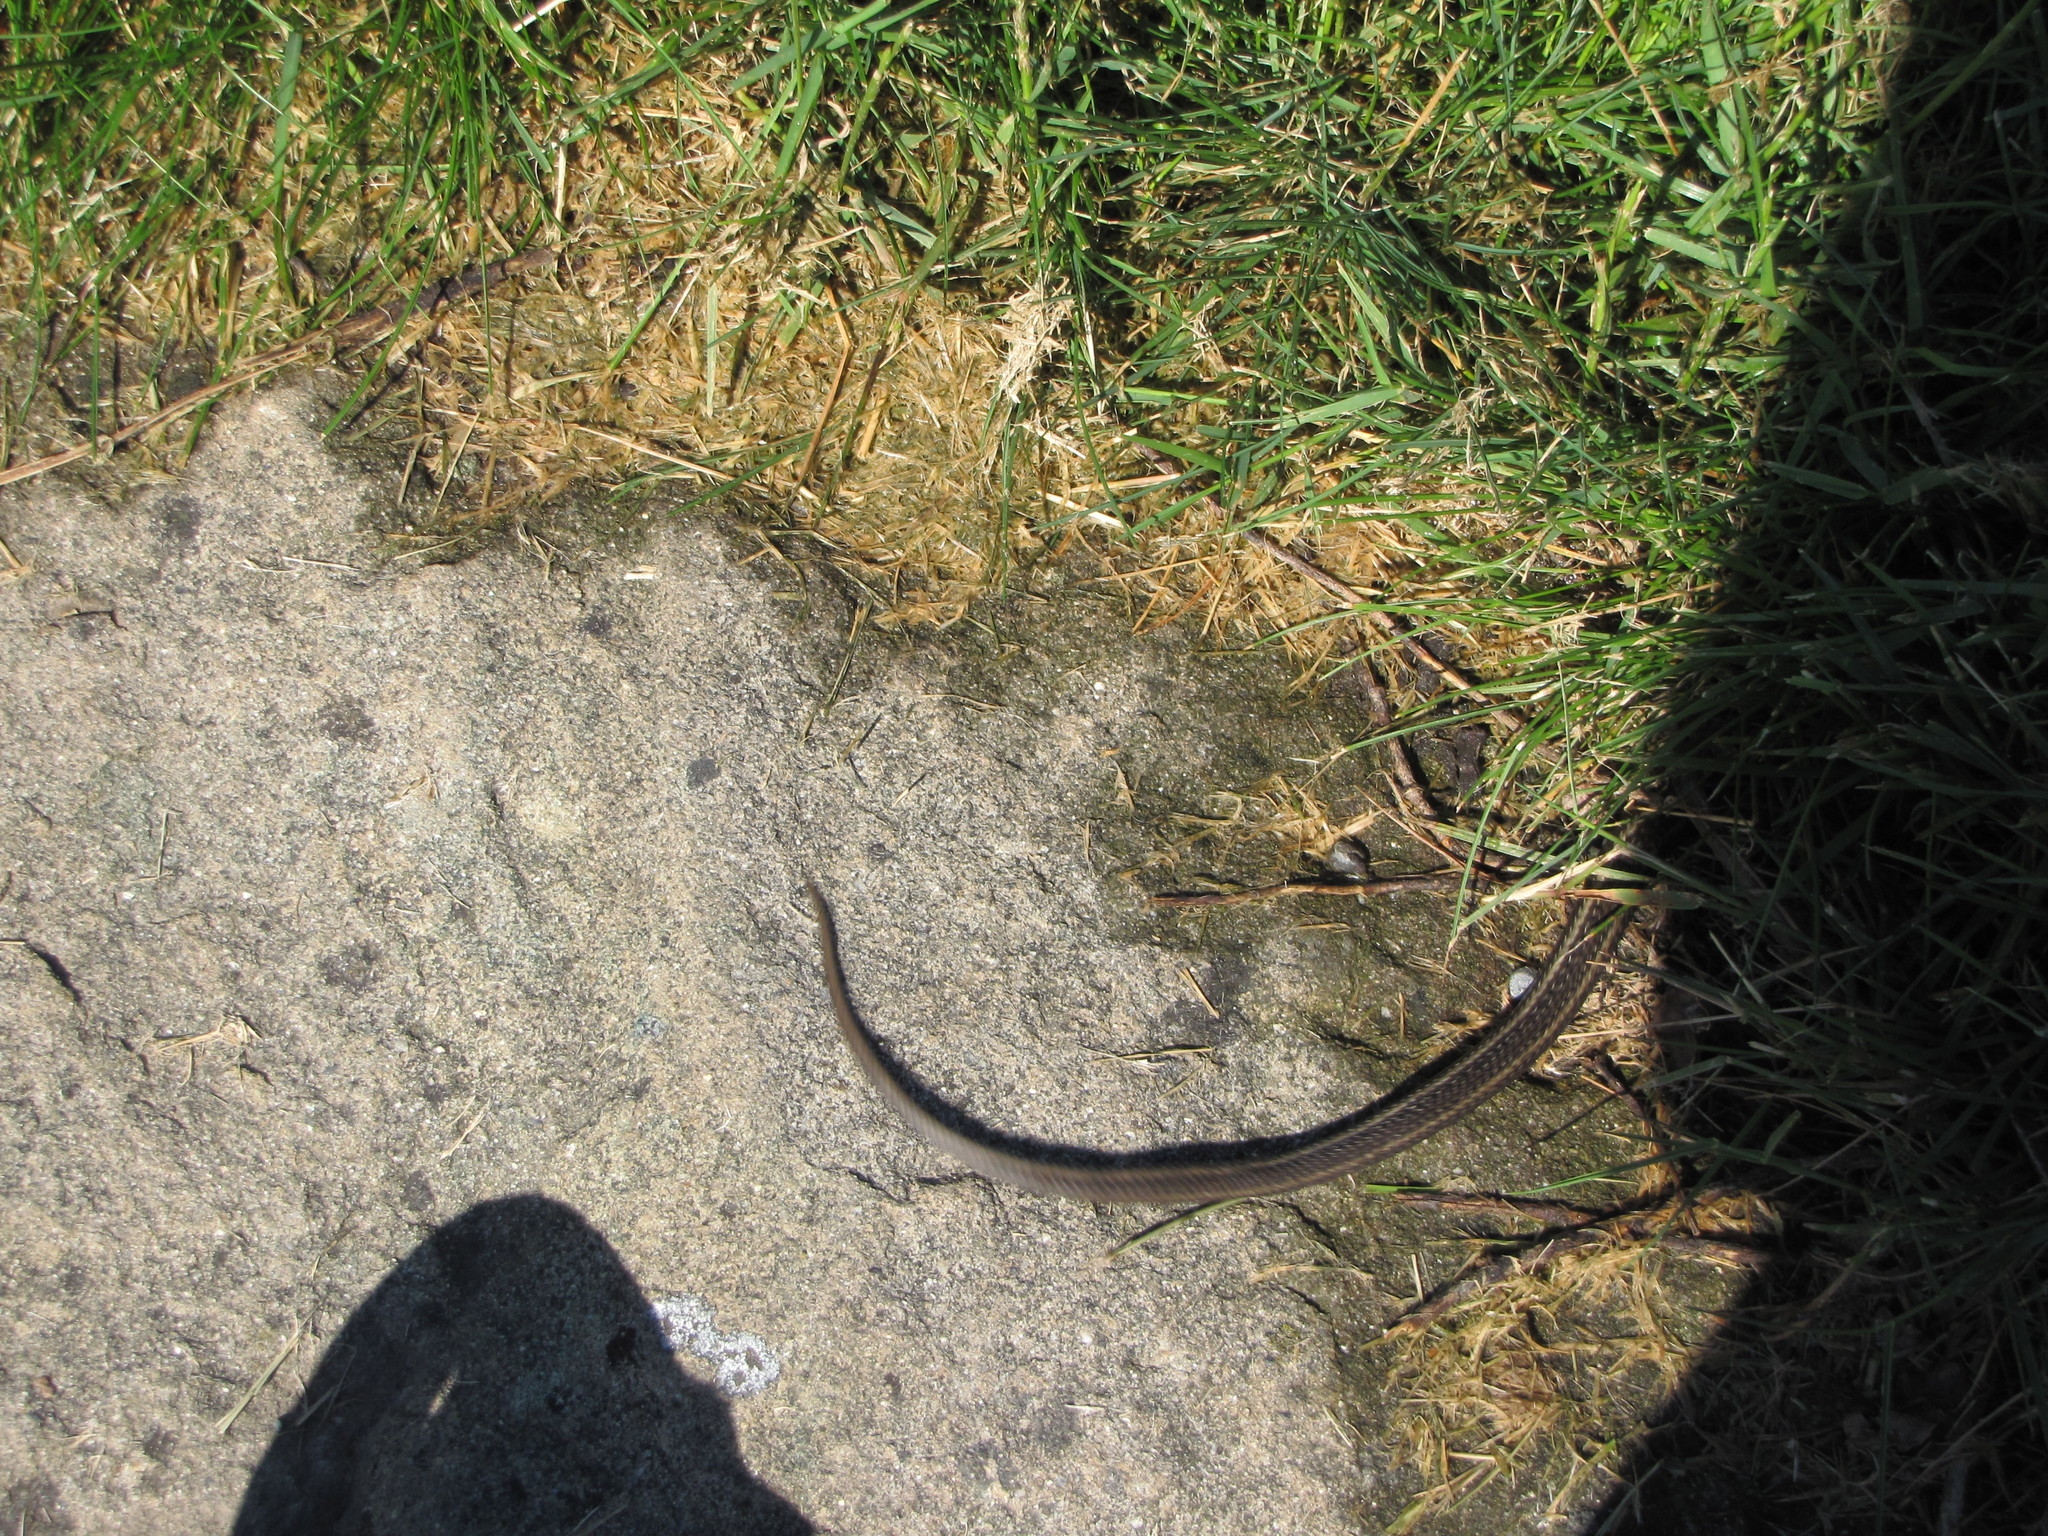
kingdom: Animalia
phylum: Chordata
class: Squamata
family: Colubridae
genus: Thamnophis
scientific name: Thamnophis ordinoides
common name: Northwestern garter snake
